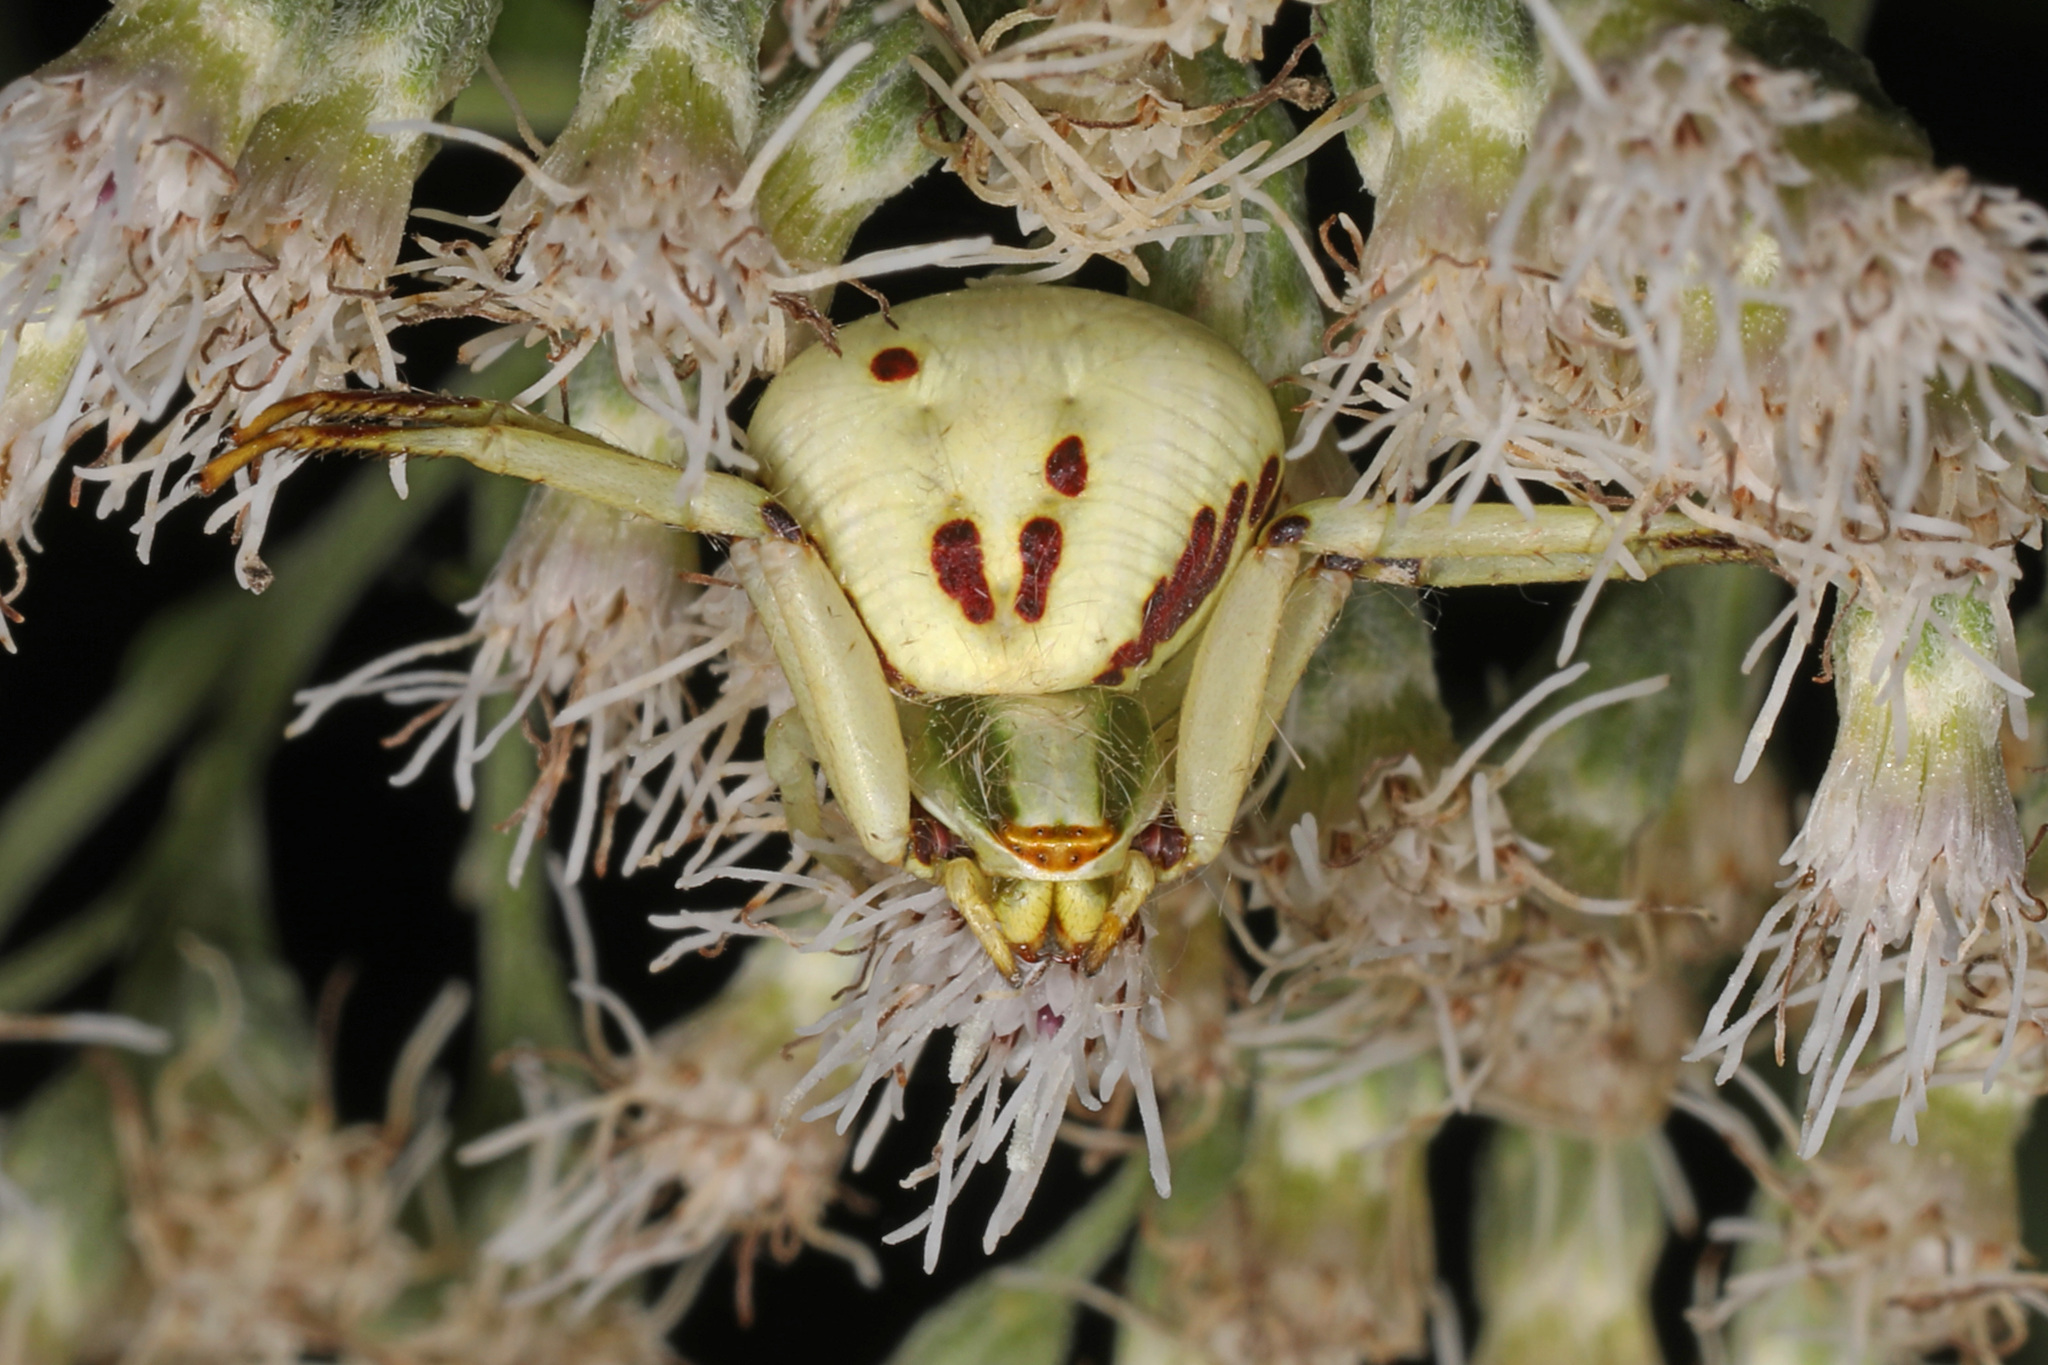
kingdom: Animalia
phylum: Arthropoda
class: Arachnida
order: Araneae
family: Thomisidae
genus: Misumenoides
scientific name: Misumenoides formosipes
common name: White-banded crab spider
